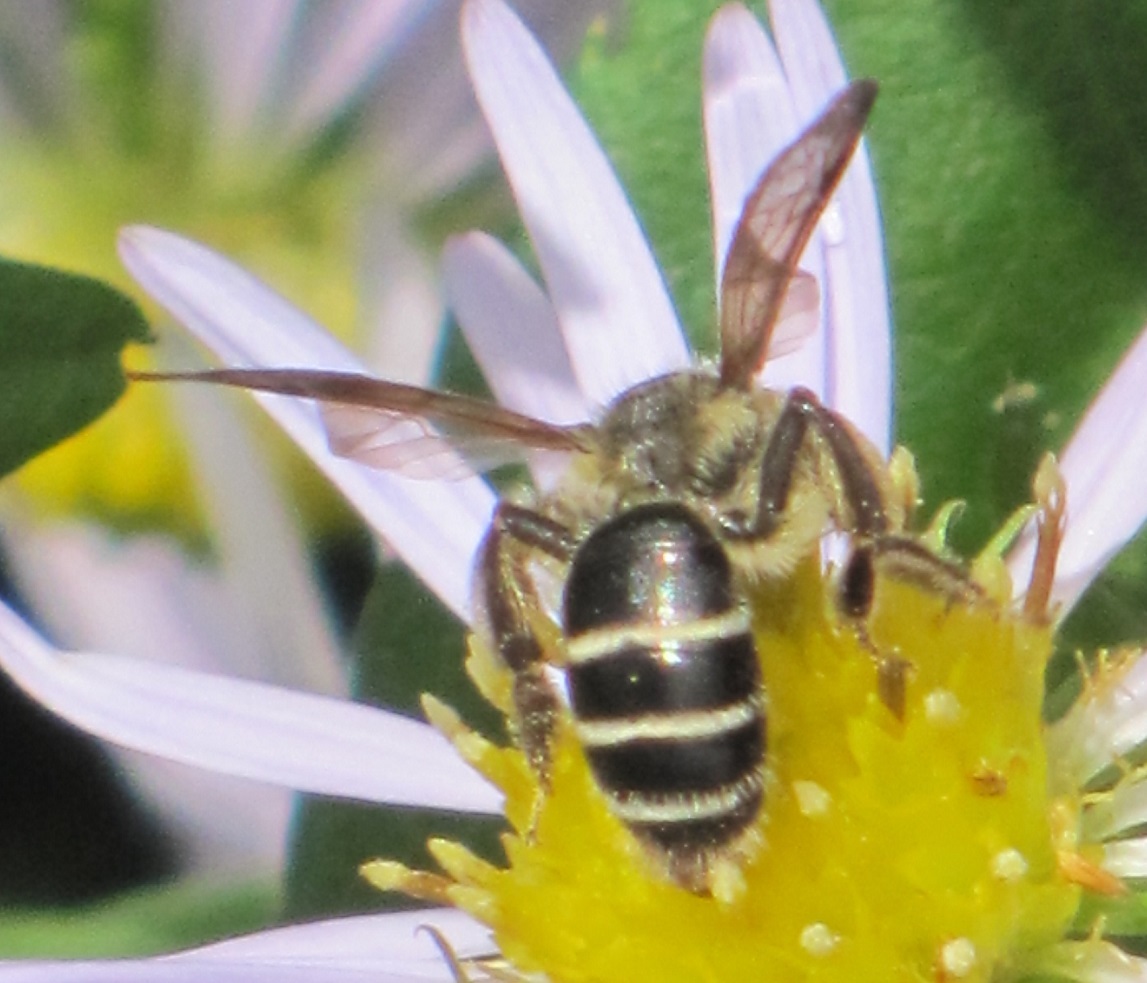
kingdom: Animalia
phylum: Arthropoda
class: Insecta
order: Hymenoptera
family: Andrenidae
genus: Andrena
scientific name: Andrena nubecula
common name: Cloudy-winged mining bee
